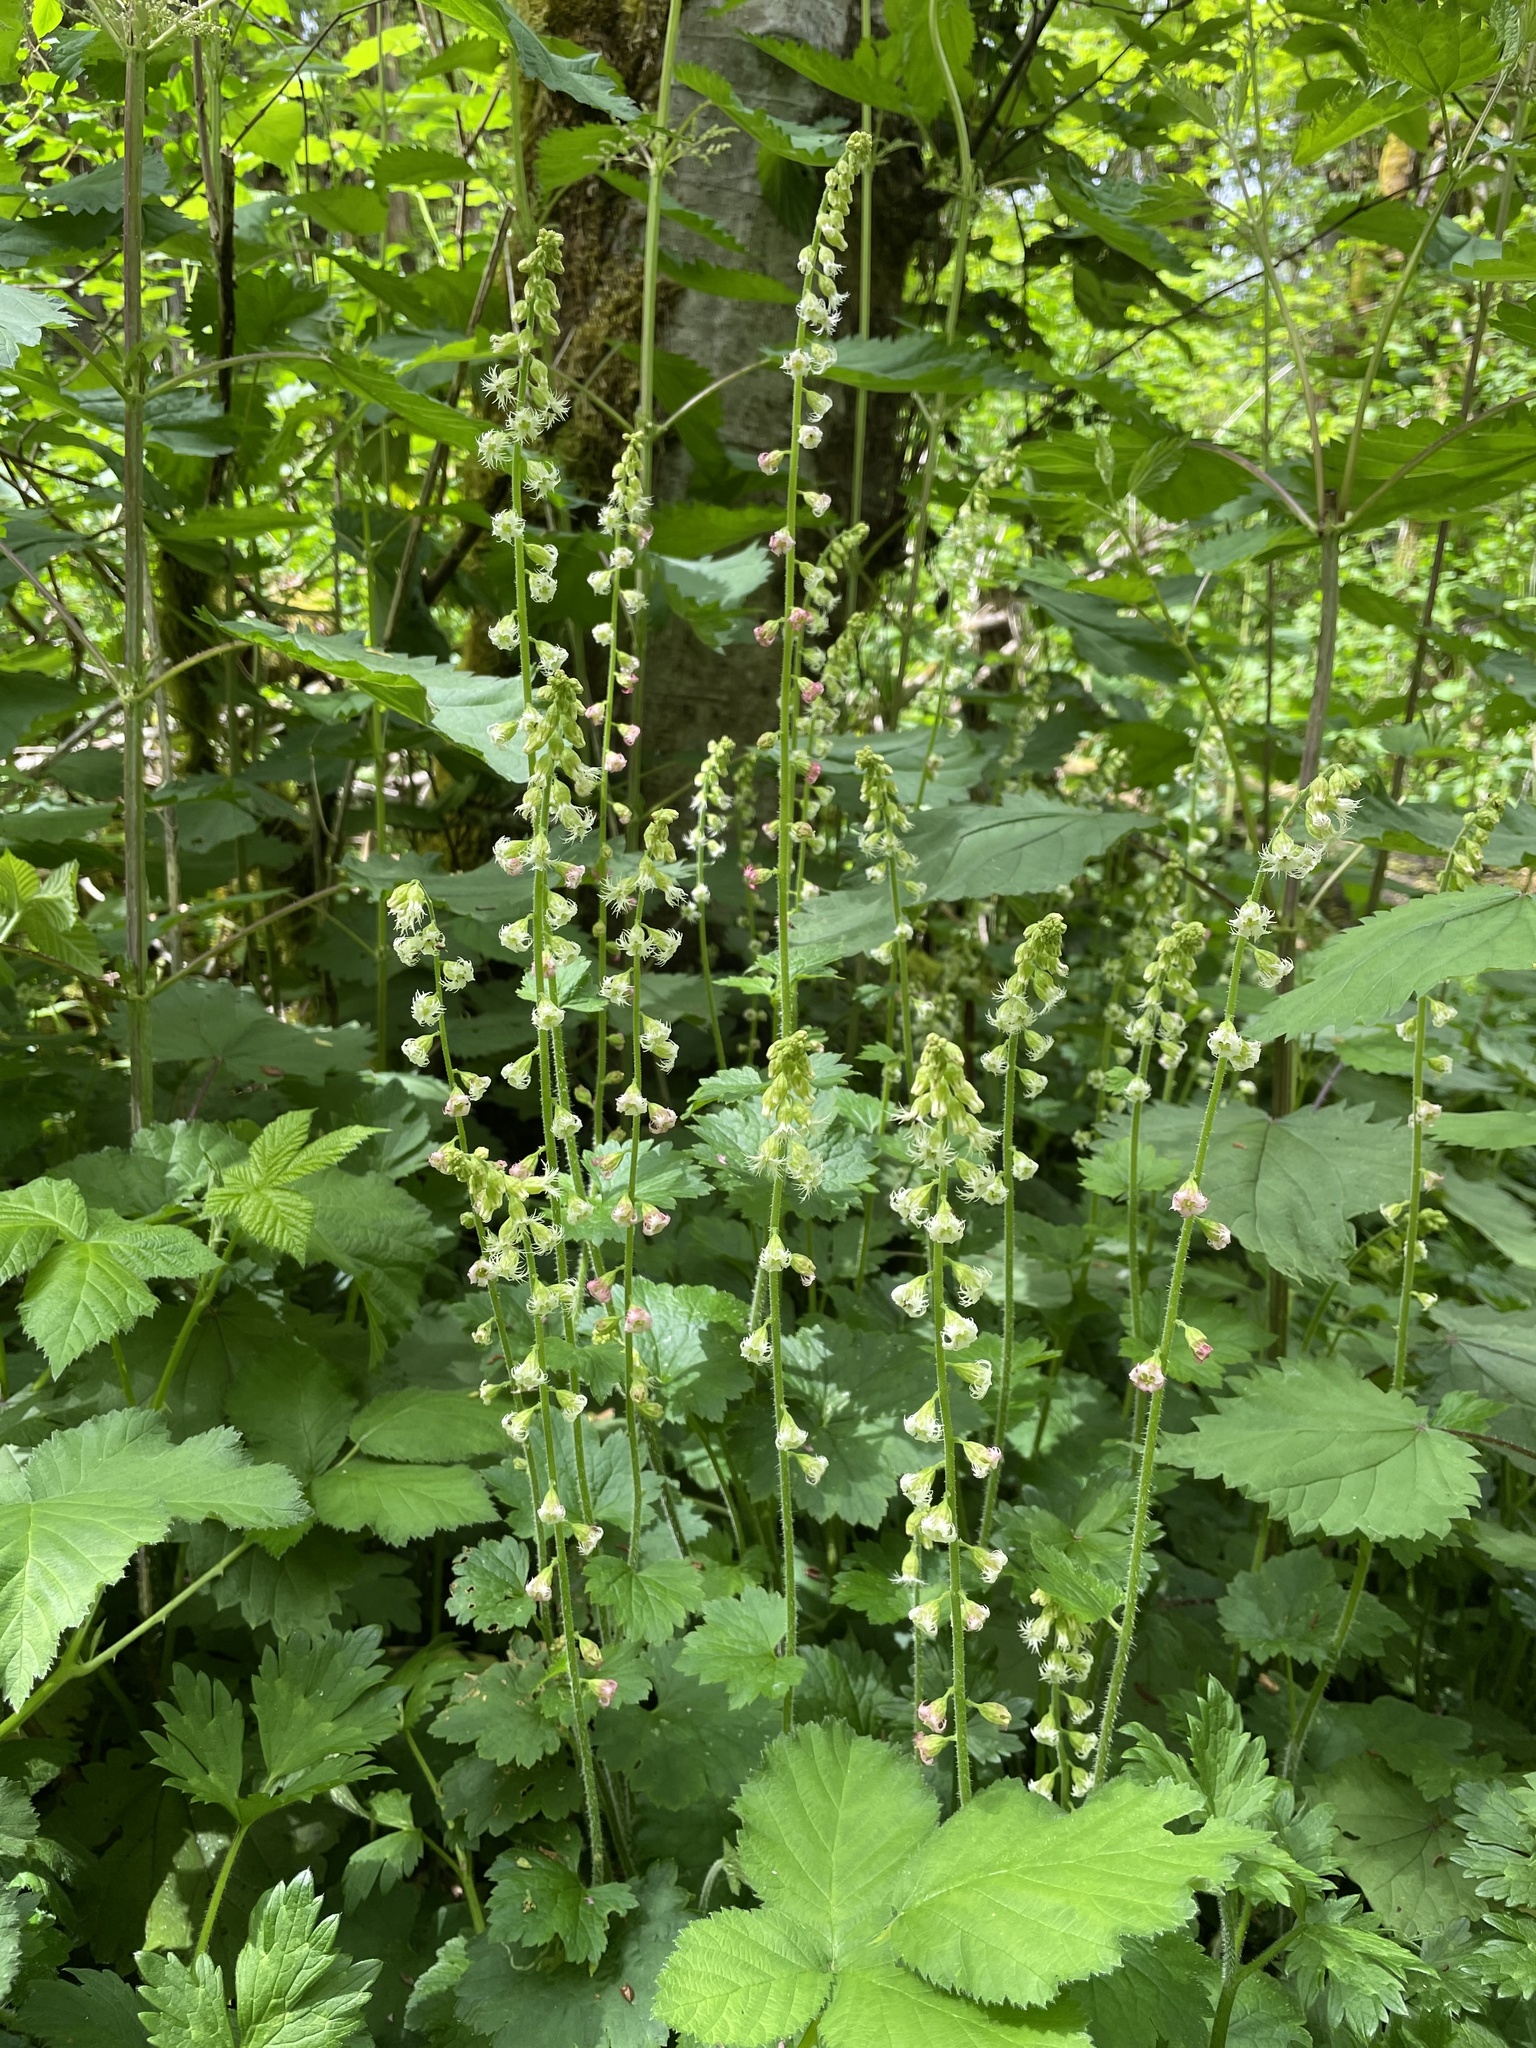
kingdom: Plantae
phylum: Tracheophyta
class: Magnoliopsida
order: Saxifragales
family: Saxifragaceae
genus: Tellima
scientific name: Tellima grandiflora
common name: Fringecups
